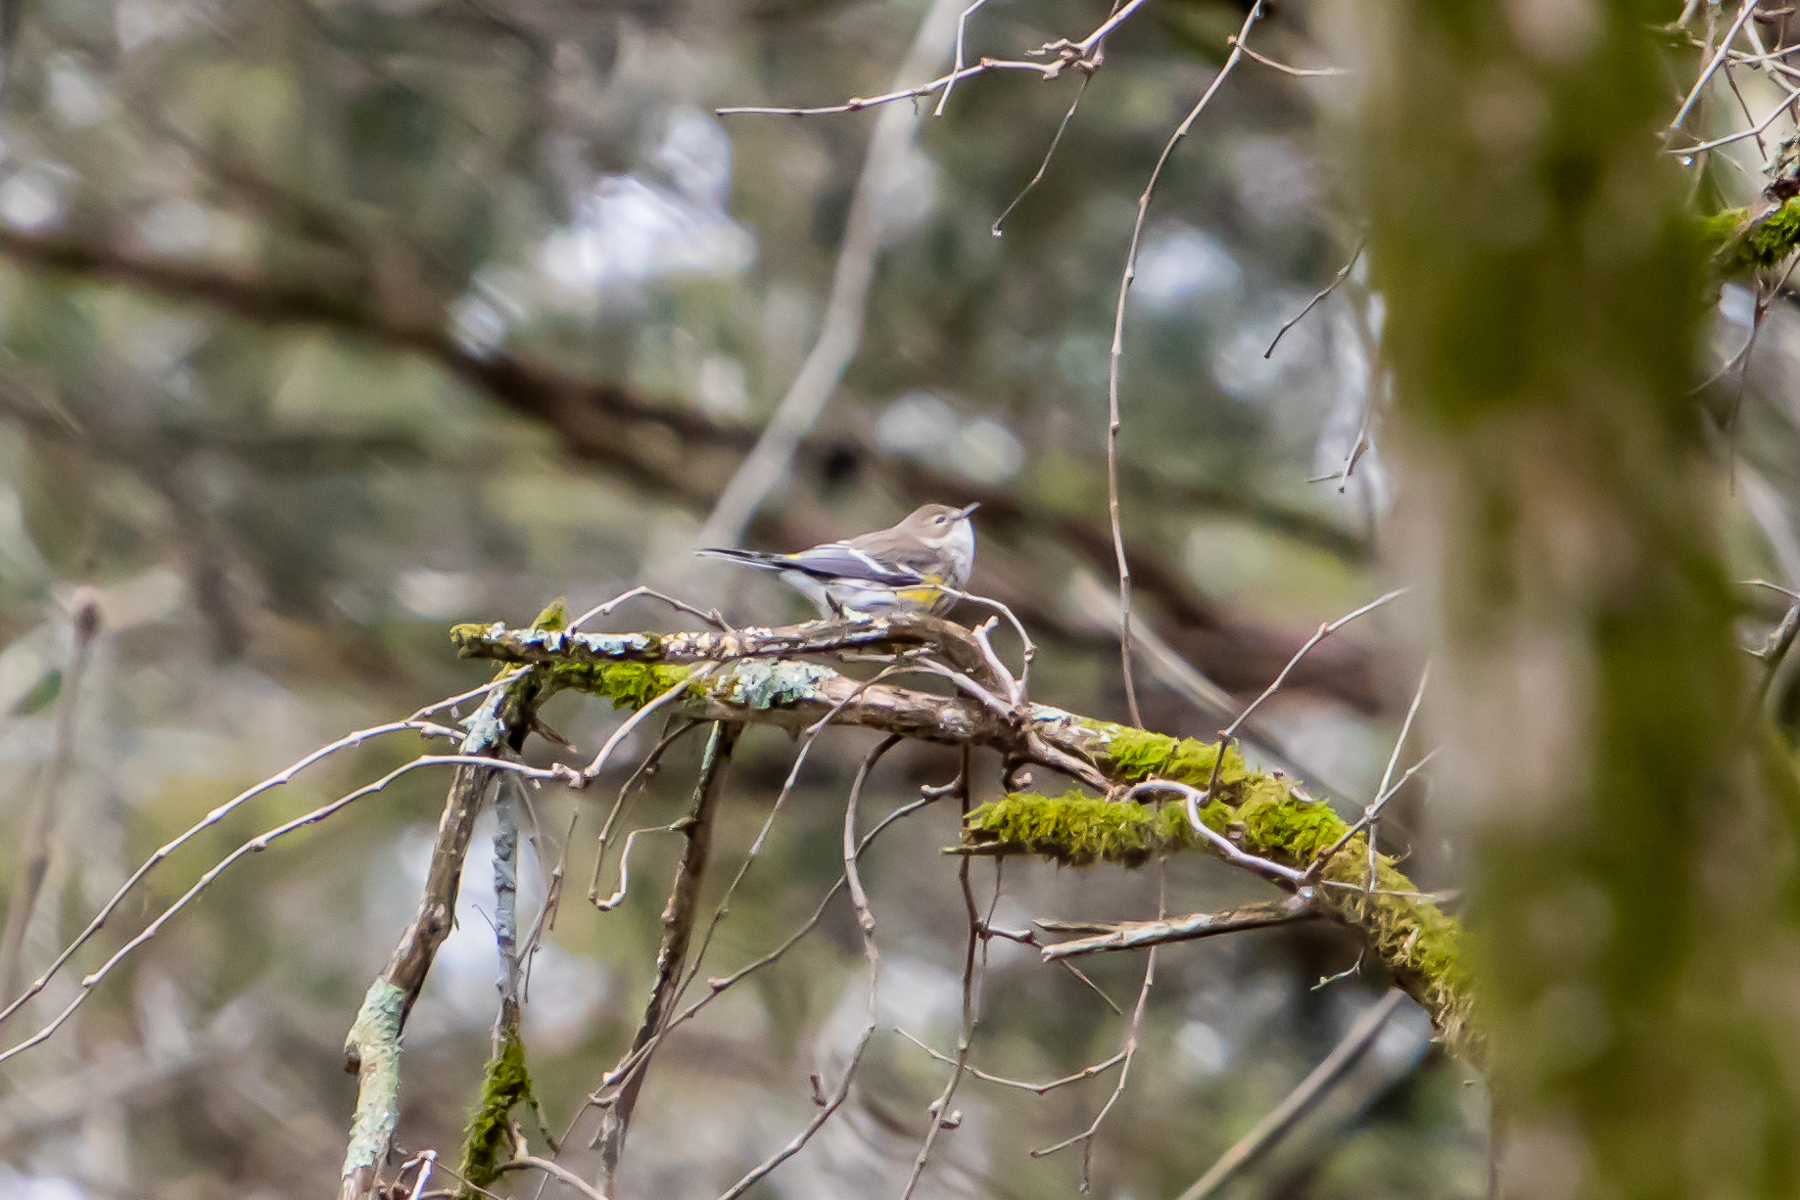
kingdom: Animalia
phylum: Chordata
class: Aves
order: Passeriformes
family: Parulidae
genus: Setophaga
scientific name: Setophaga coronata
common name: Myrtle warbler
